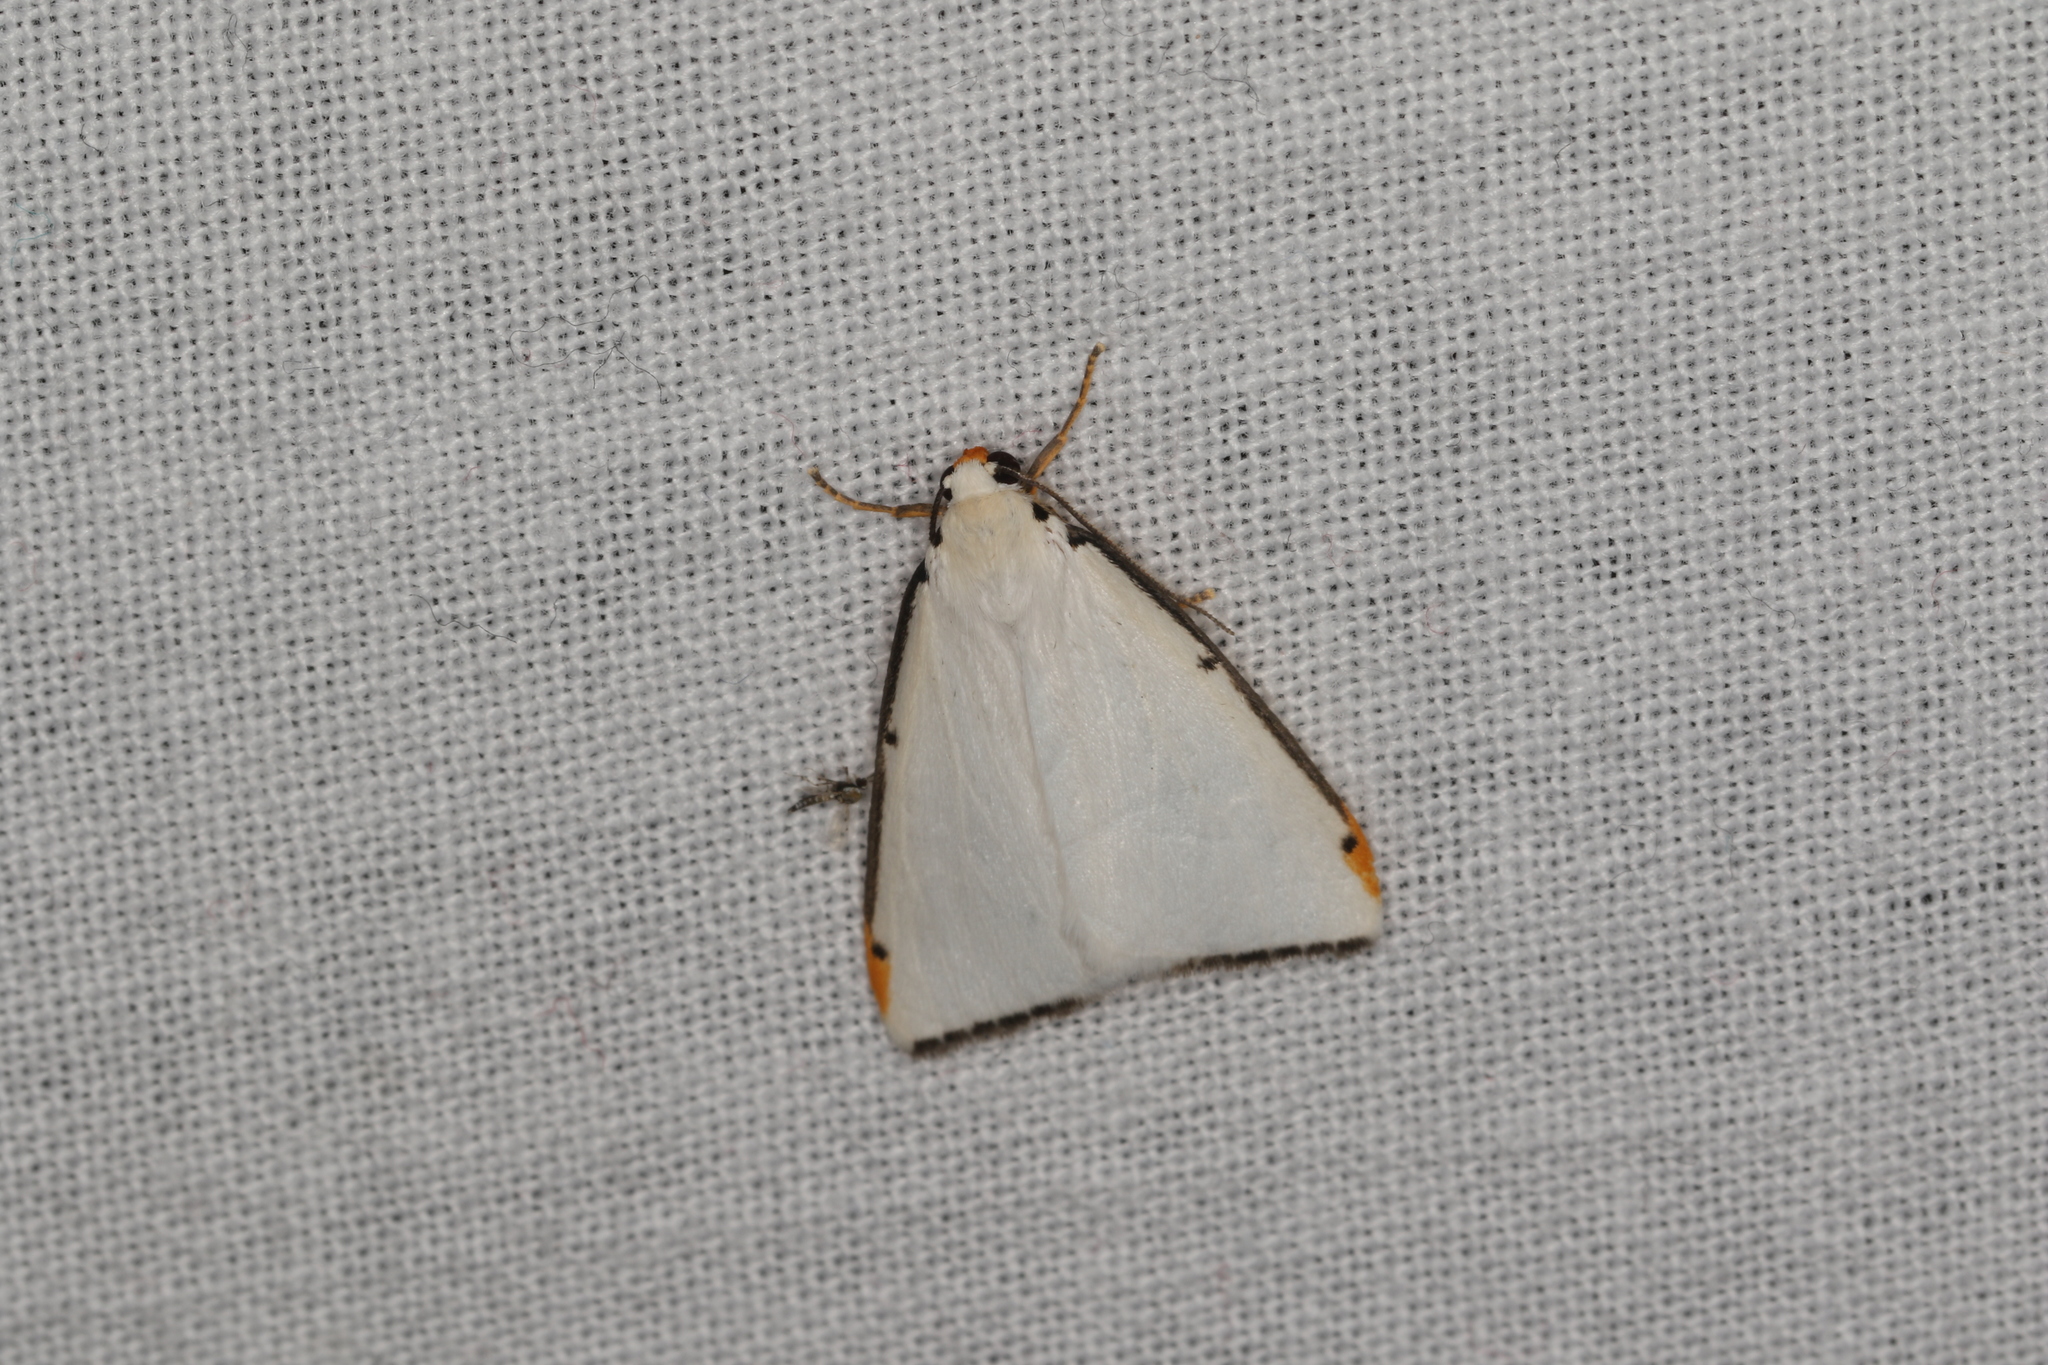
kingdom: Animalia
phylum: Arthropoda
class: Insecta
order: Lepidoptera
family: Erebidae
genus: Termessa
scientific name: Termessa nivosa
